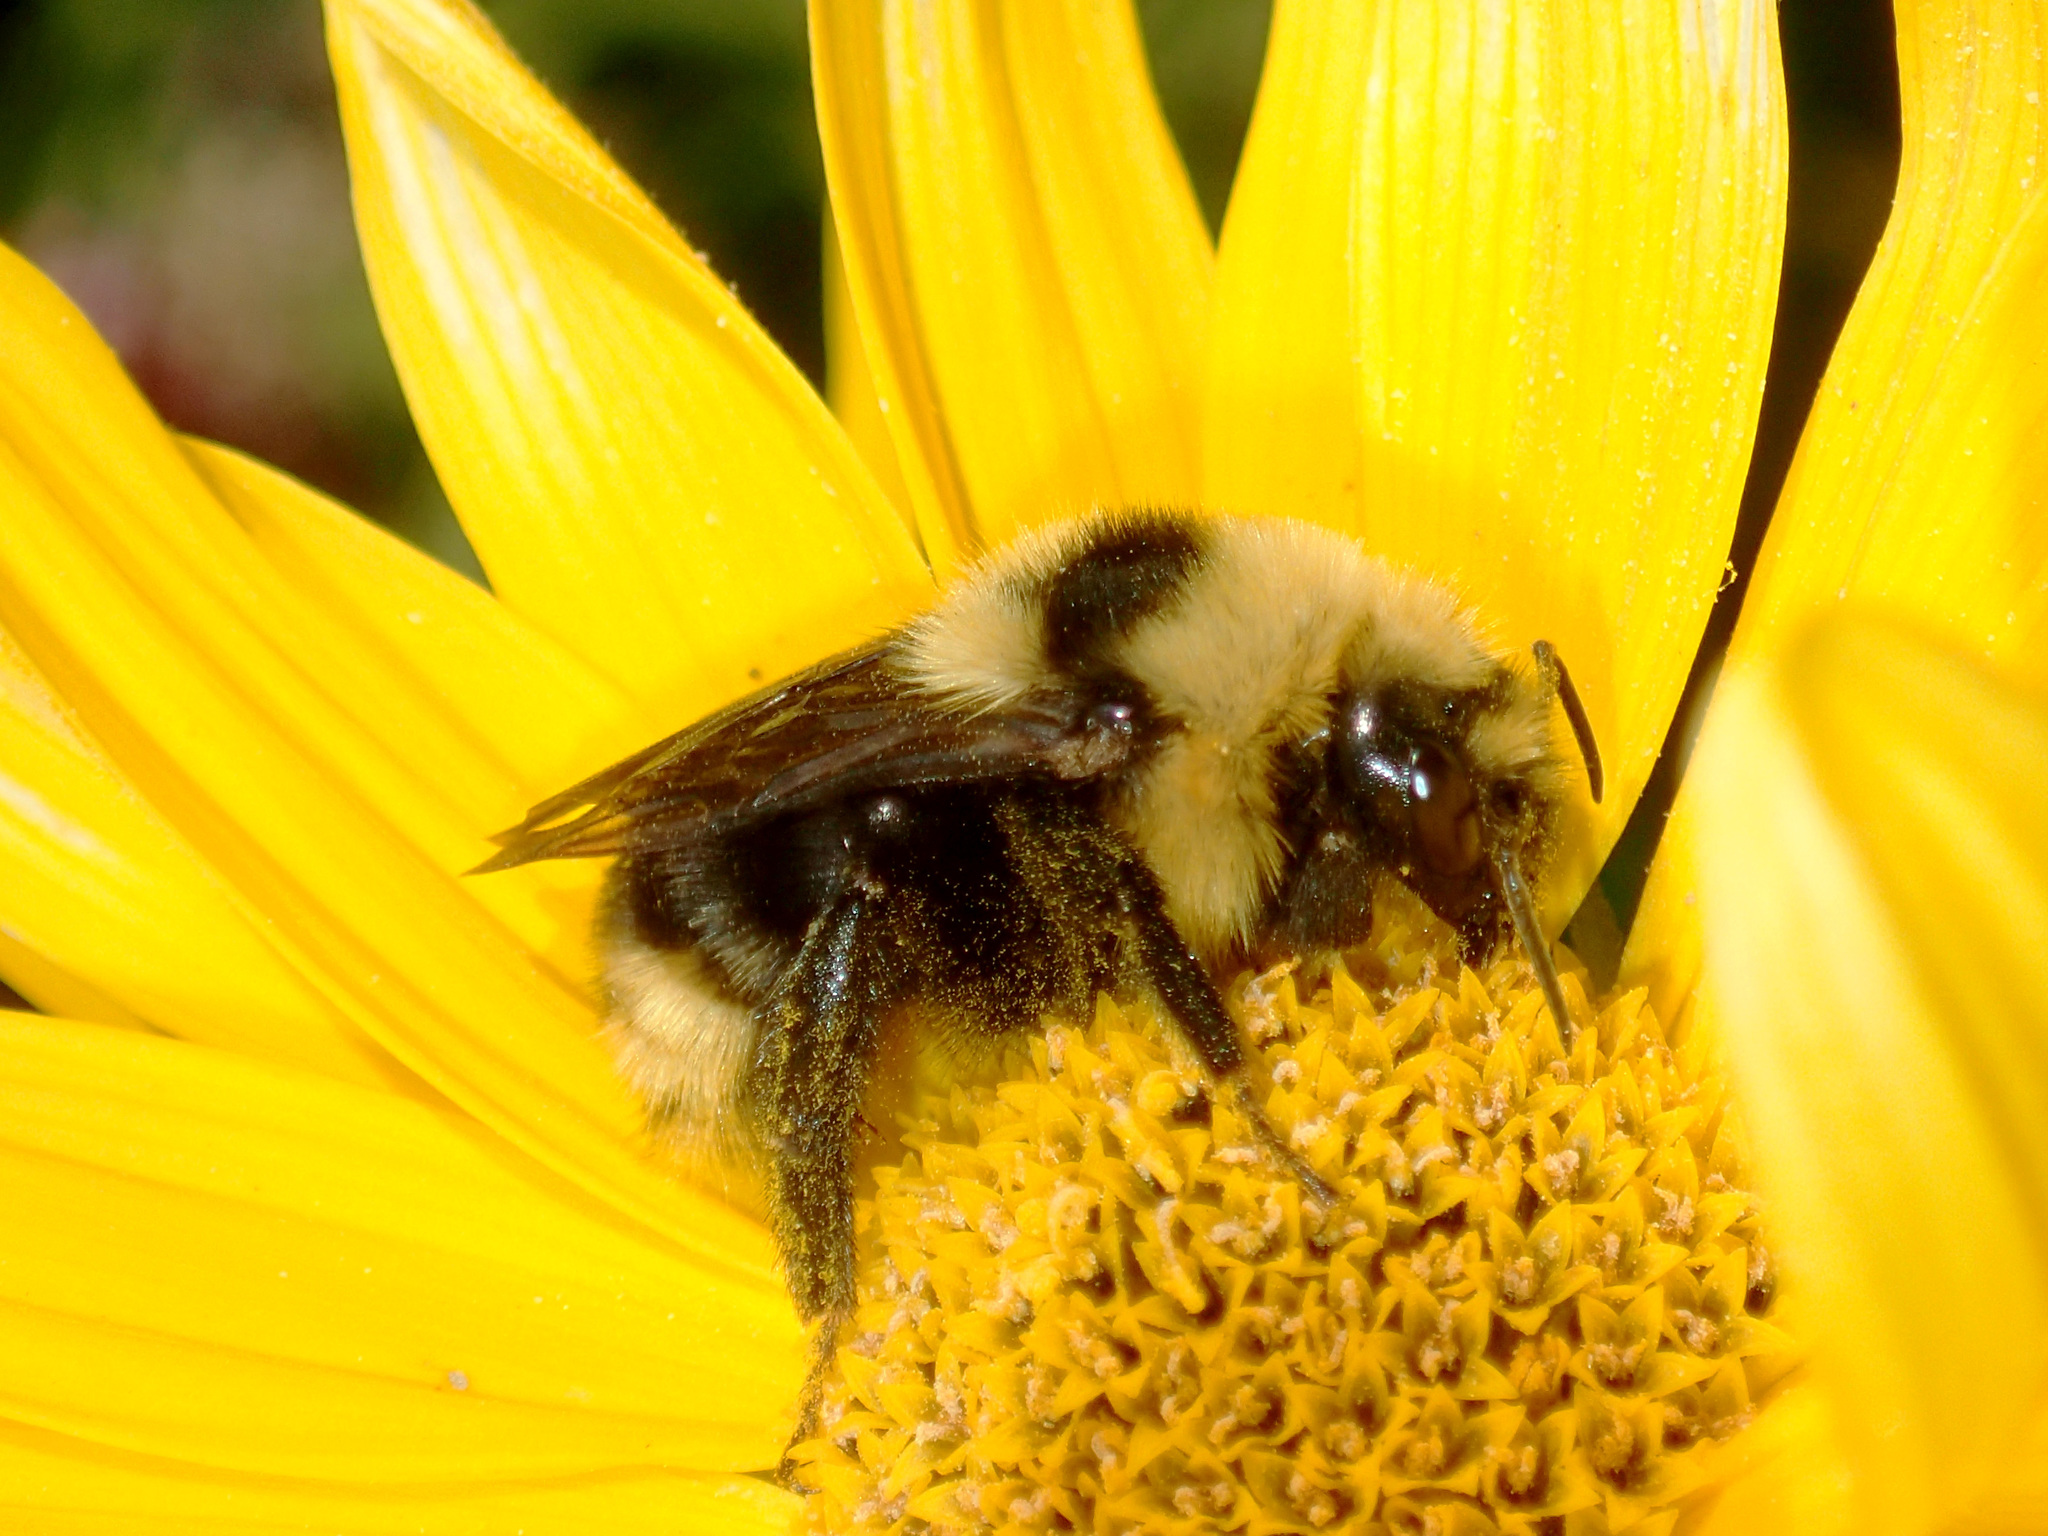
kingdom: Animalia
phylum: Arthropoda
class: Insecta
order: Hymenoptera
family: Apidae
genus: Bombus
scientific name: Bombus insularis
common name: Indiscriminate cuckoo bumble bee
